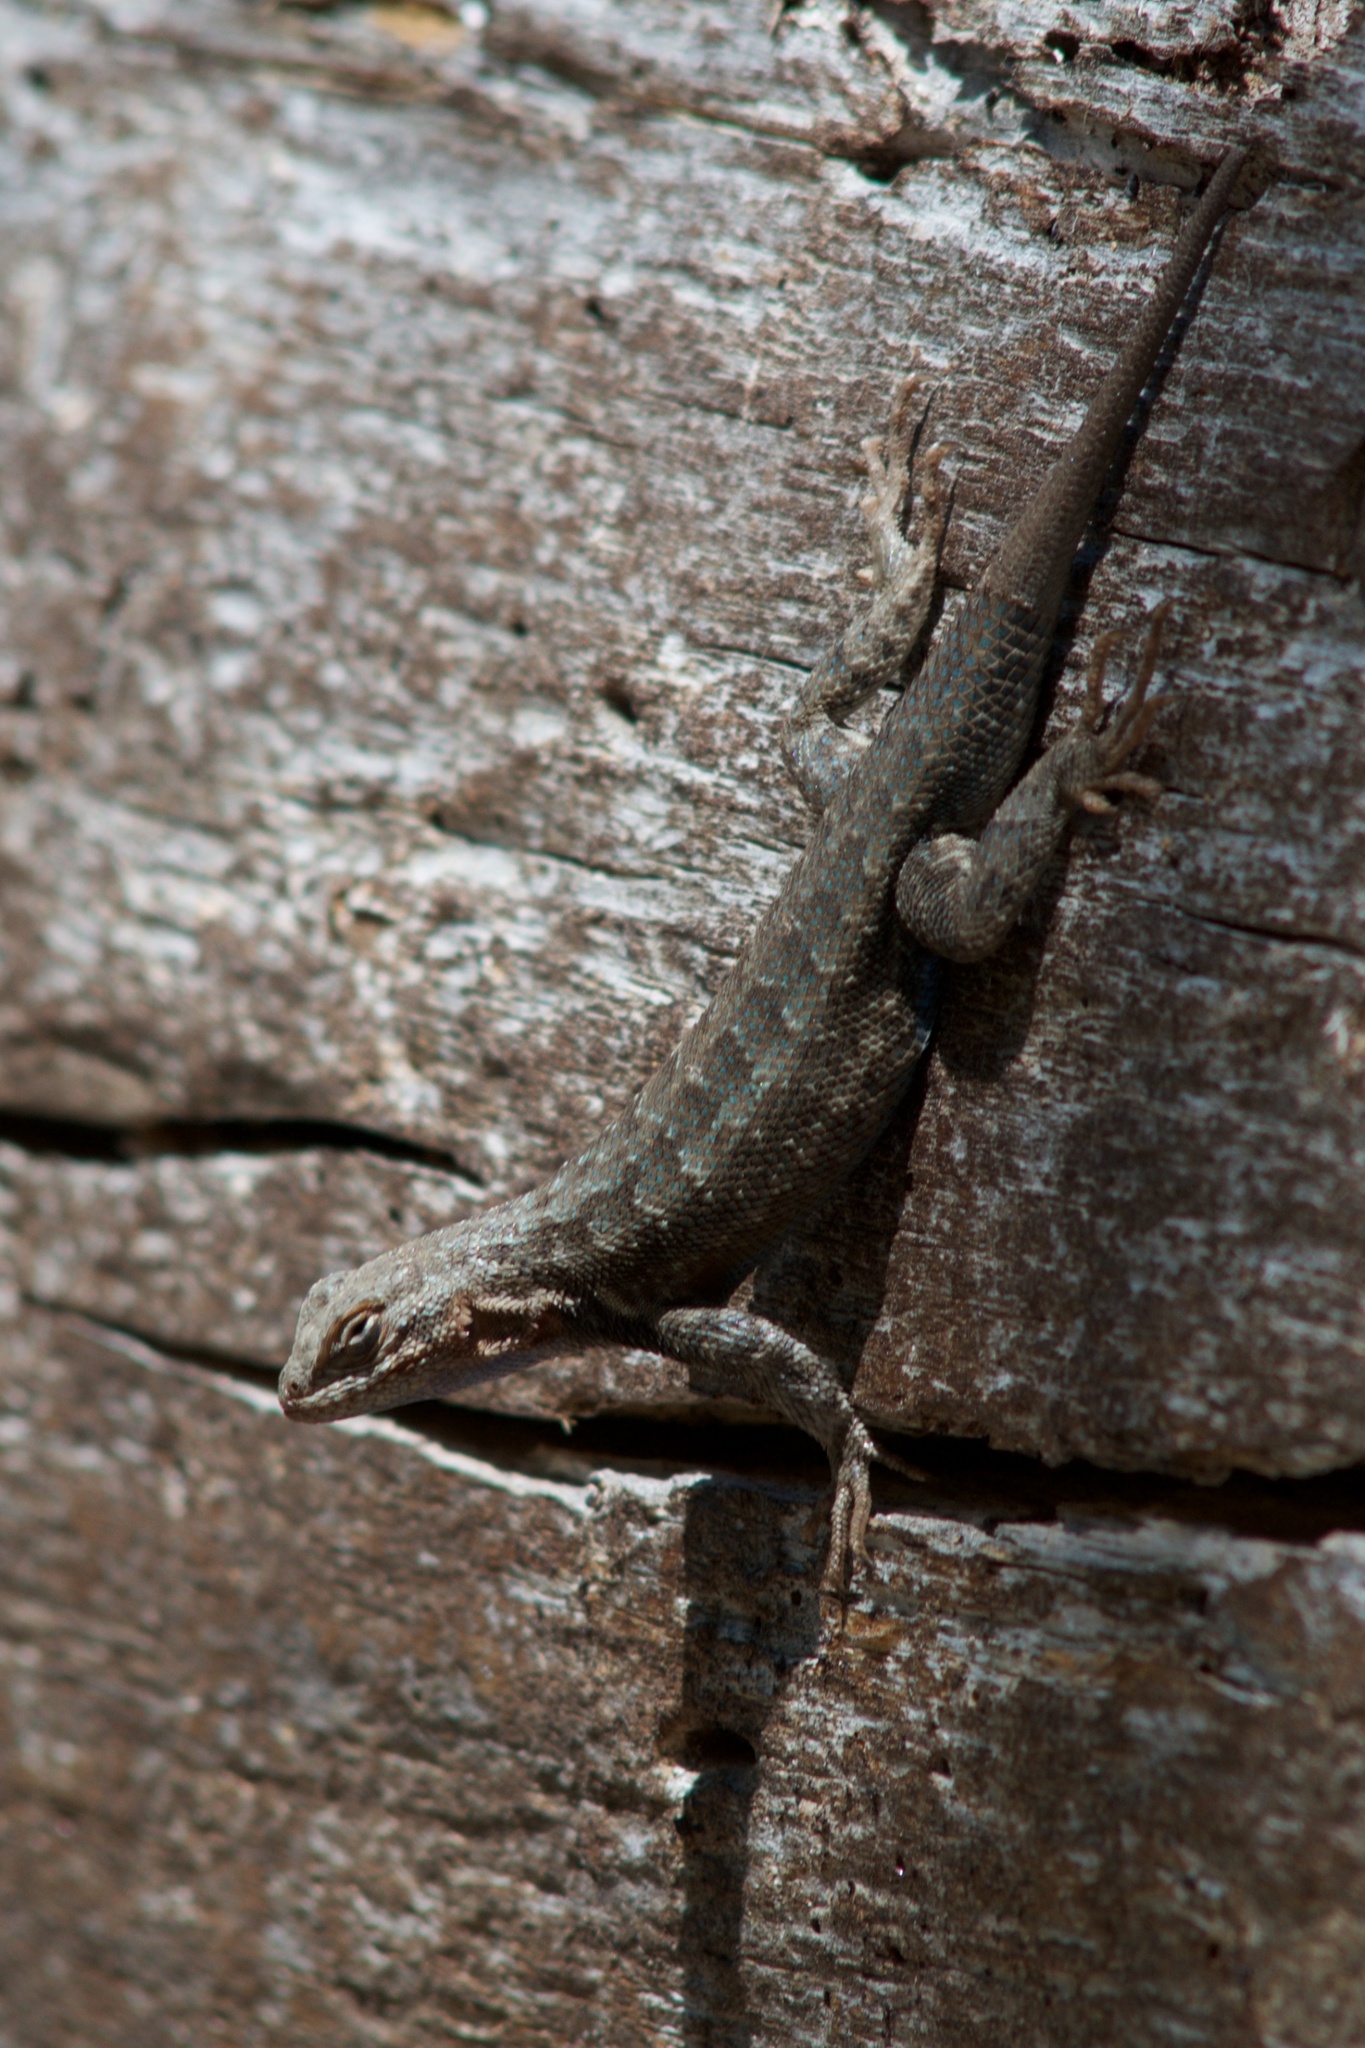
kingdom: Animalia
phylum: Chordata
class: Squamata
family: Phrynosomatidae
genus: Sceloporus
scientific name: Sceloporus graciosus
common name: Sagebrush lizard
